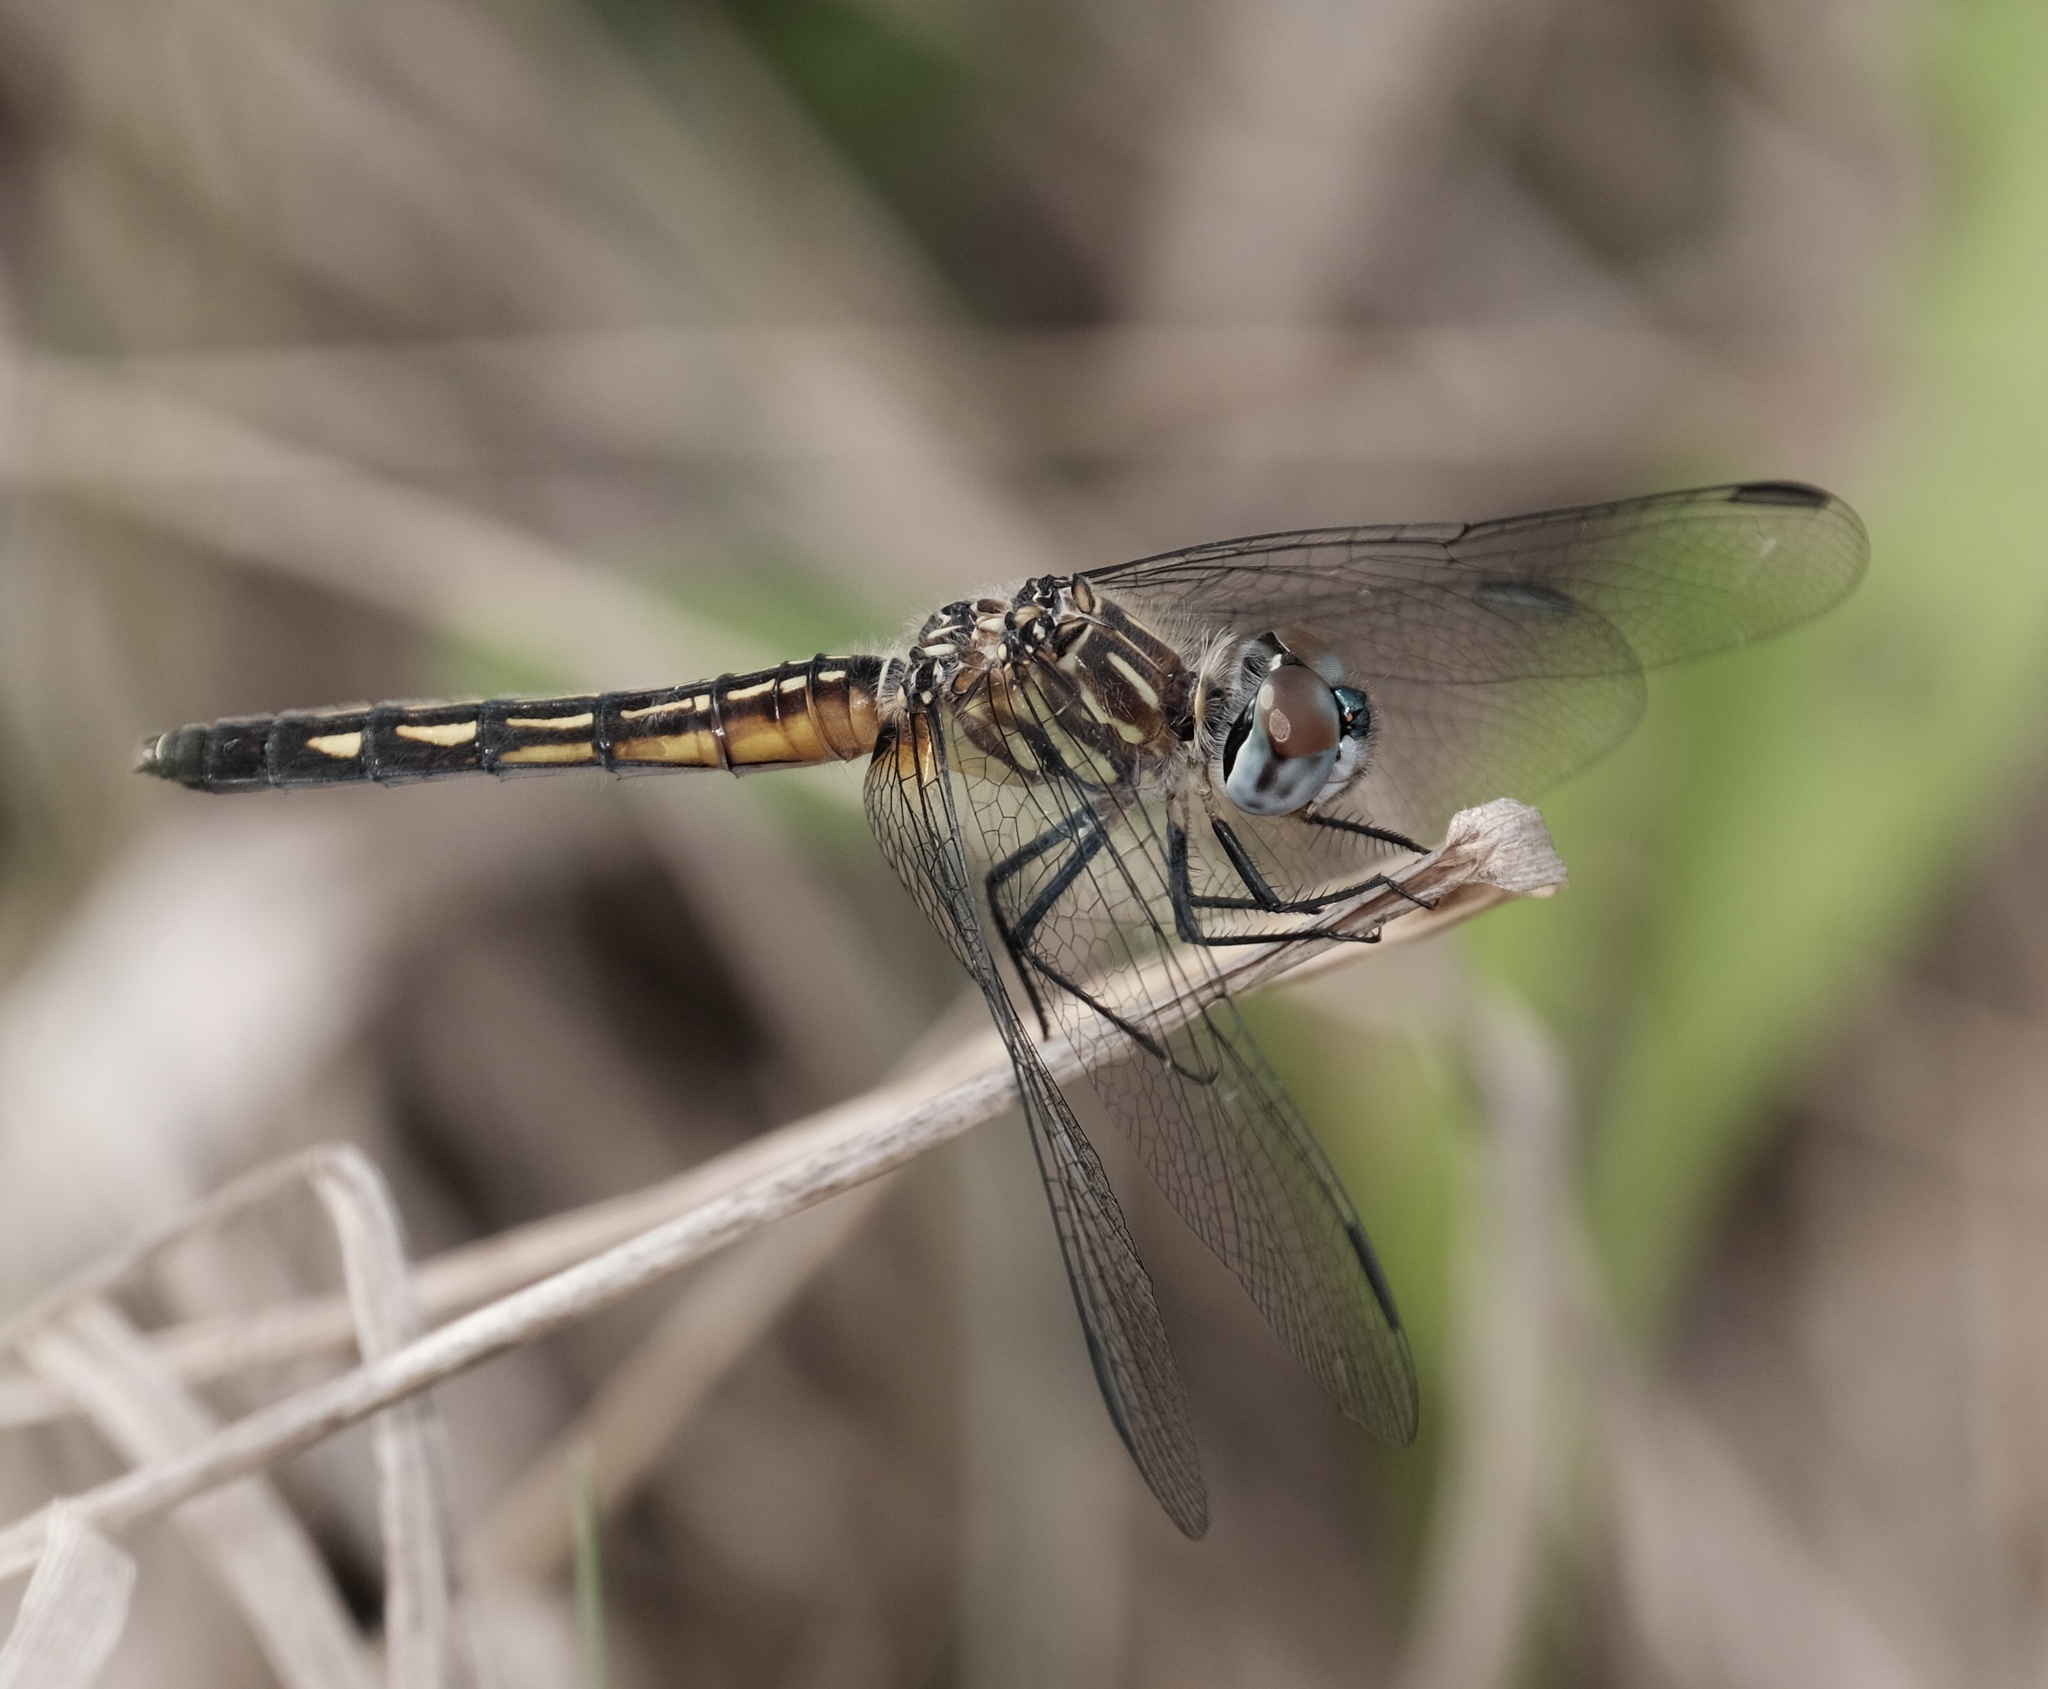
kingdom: Animalia
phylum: Arthropoda
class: Insecta
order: Odonata
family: Libellulidae
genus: Pachydiplax
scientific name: Pachydiplax longipennis
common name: Blue dasher
